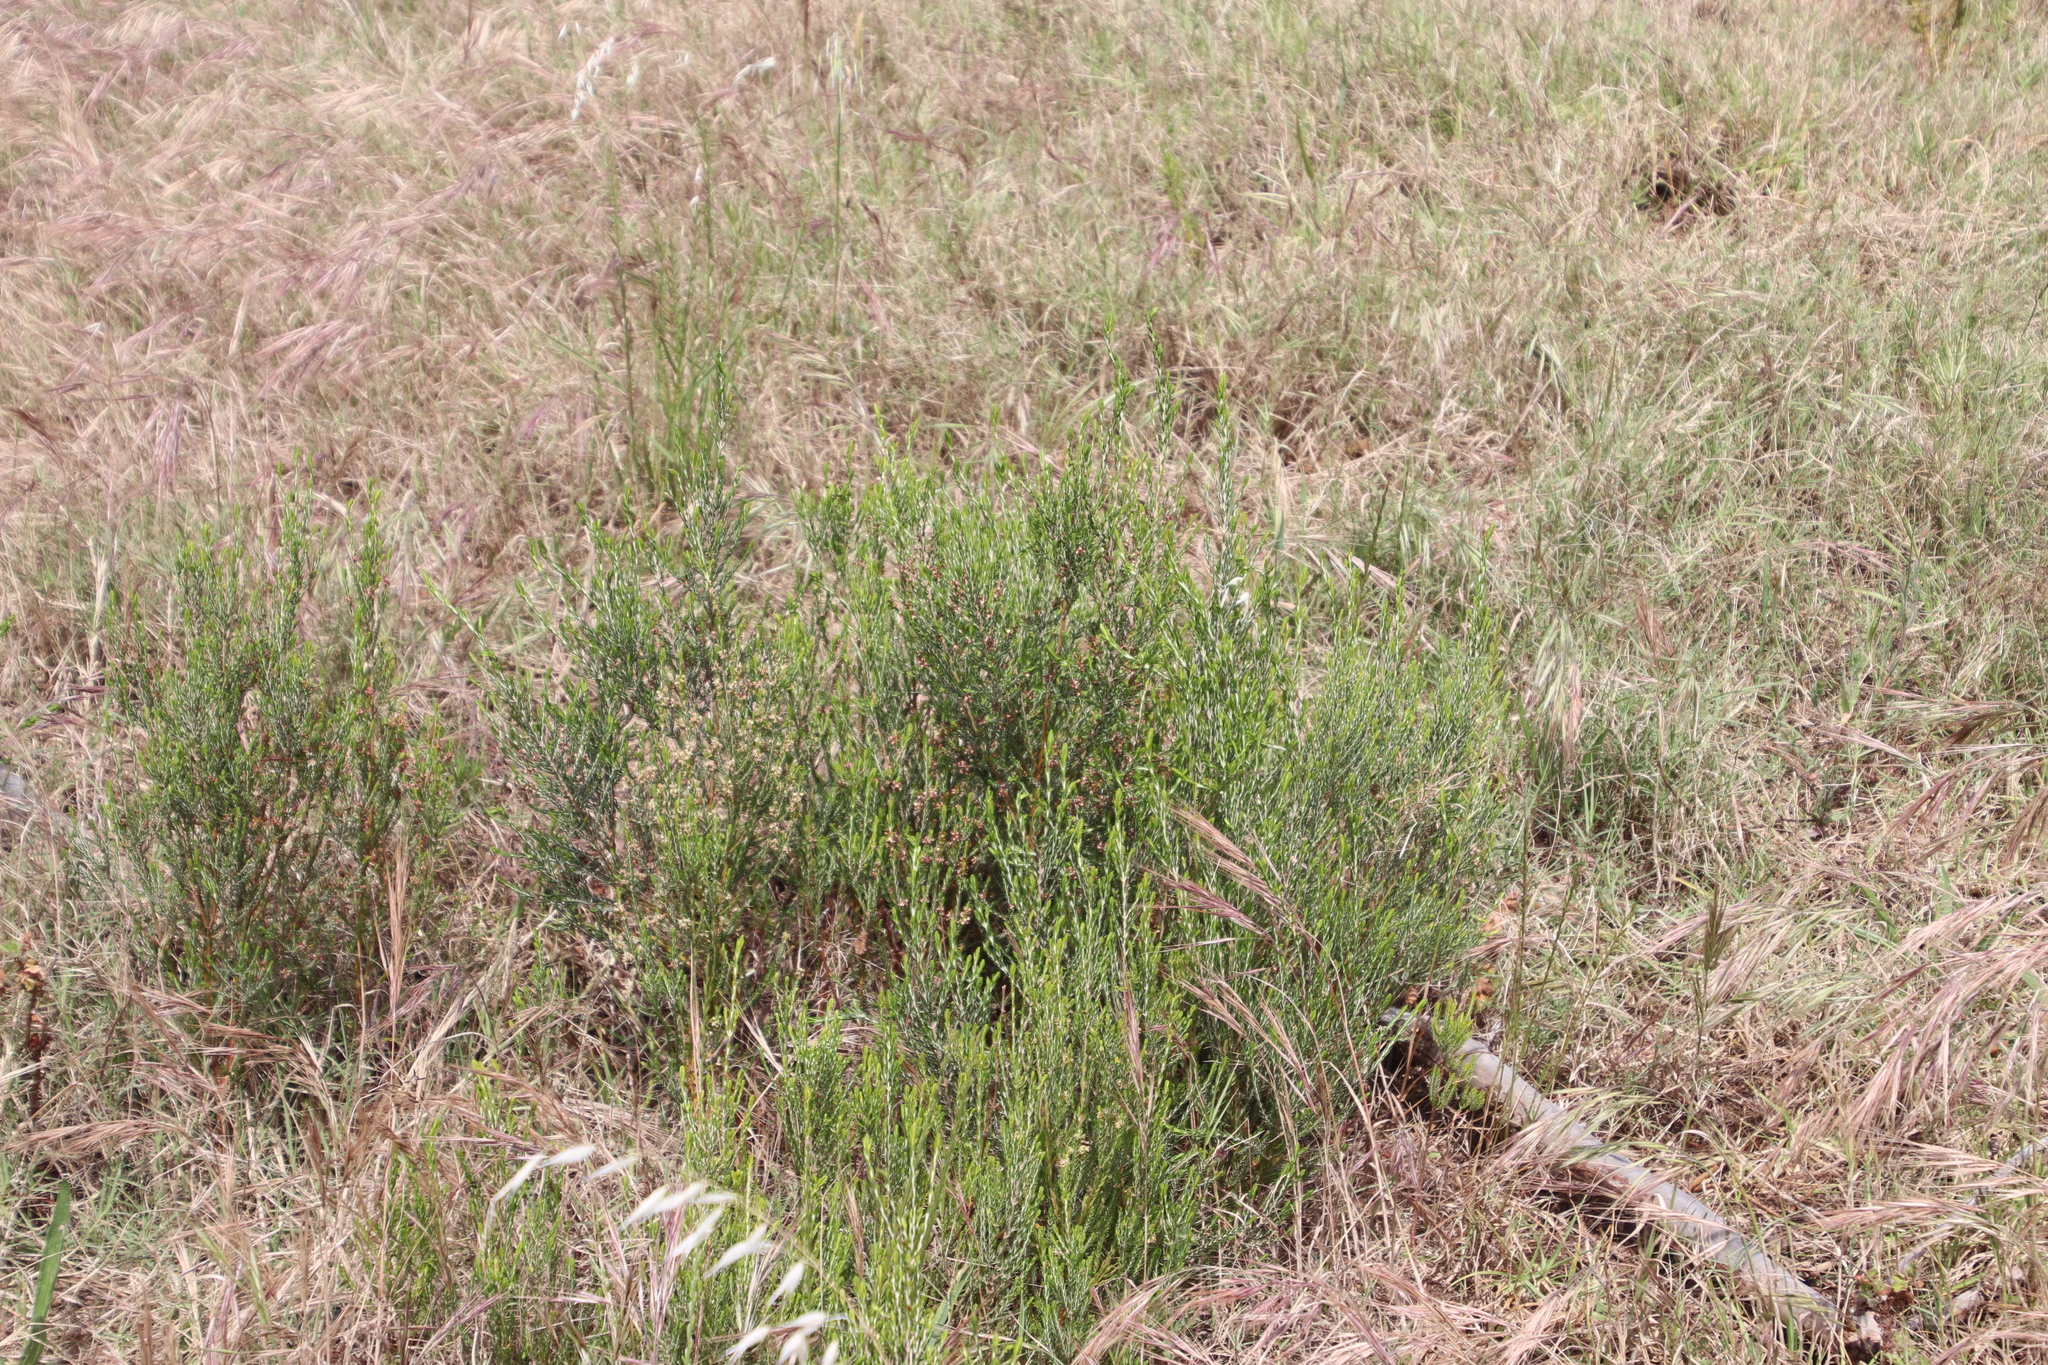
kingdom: Plantae
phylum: Tracheophyta
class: Magnoliopsida
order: Malvales
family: Thymelaeaceae
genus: Passerina
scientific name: Passerina corymbosa
